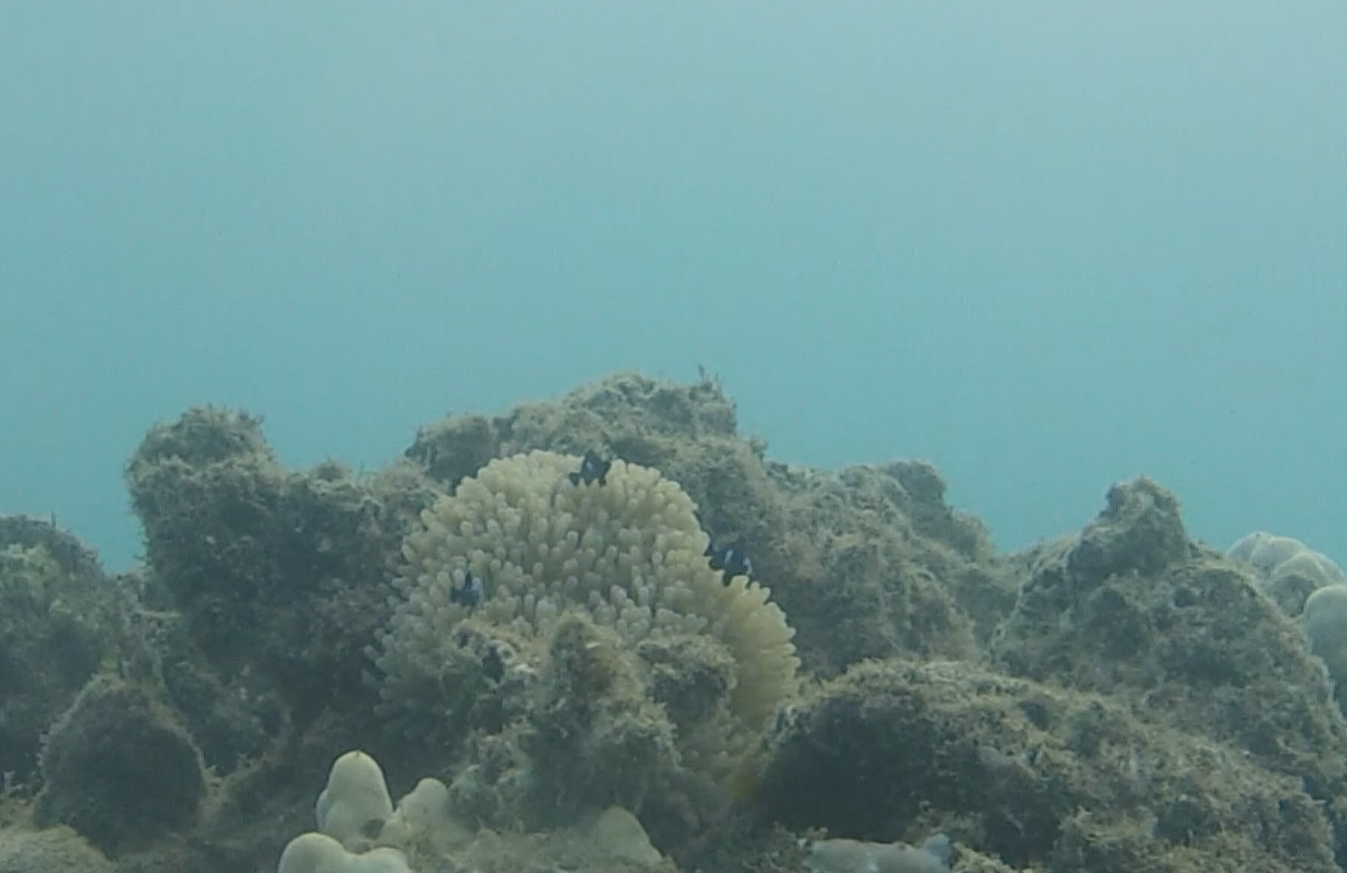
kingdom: Animalia
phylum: Chordata
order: Perciformes
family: Pomacentridae
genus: Dascyllus
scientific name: Dascyllus trimaculatus
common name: Threespot dascyllus
